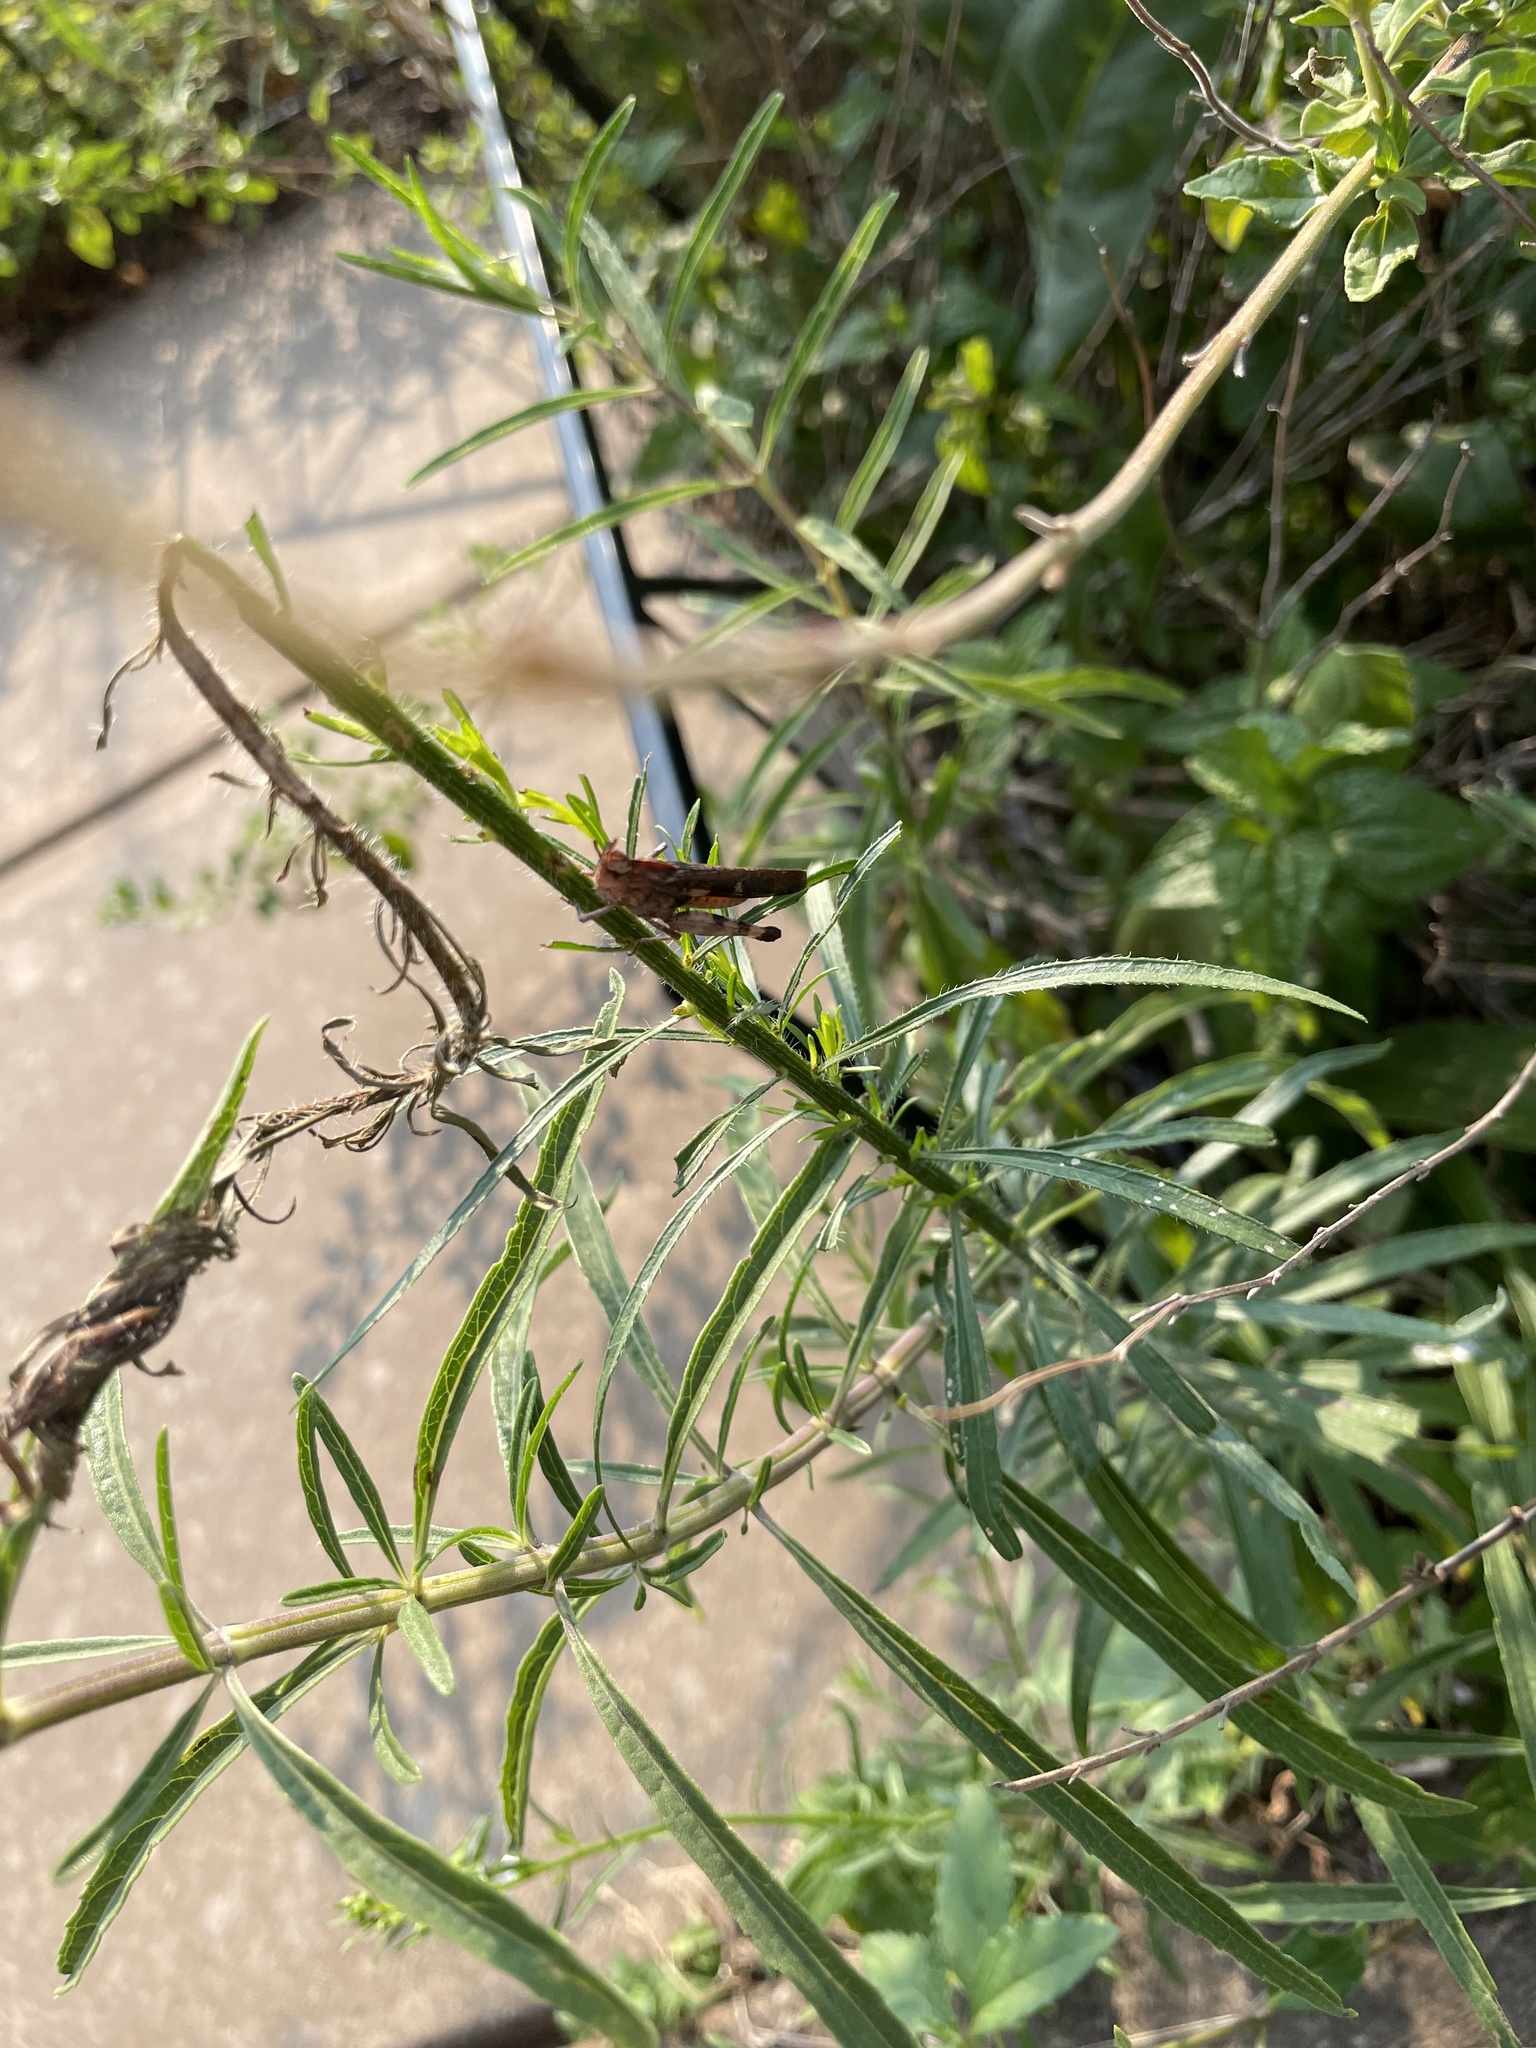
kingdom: Animalia
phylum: Arthropoda
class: Insecta
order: Orthoptera
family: Acrididae
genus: Chortophaga
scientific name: Chortophaga viridifasciata
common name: Green-striped grasshopper
